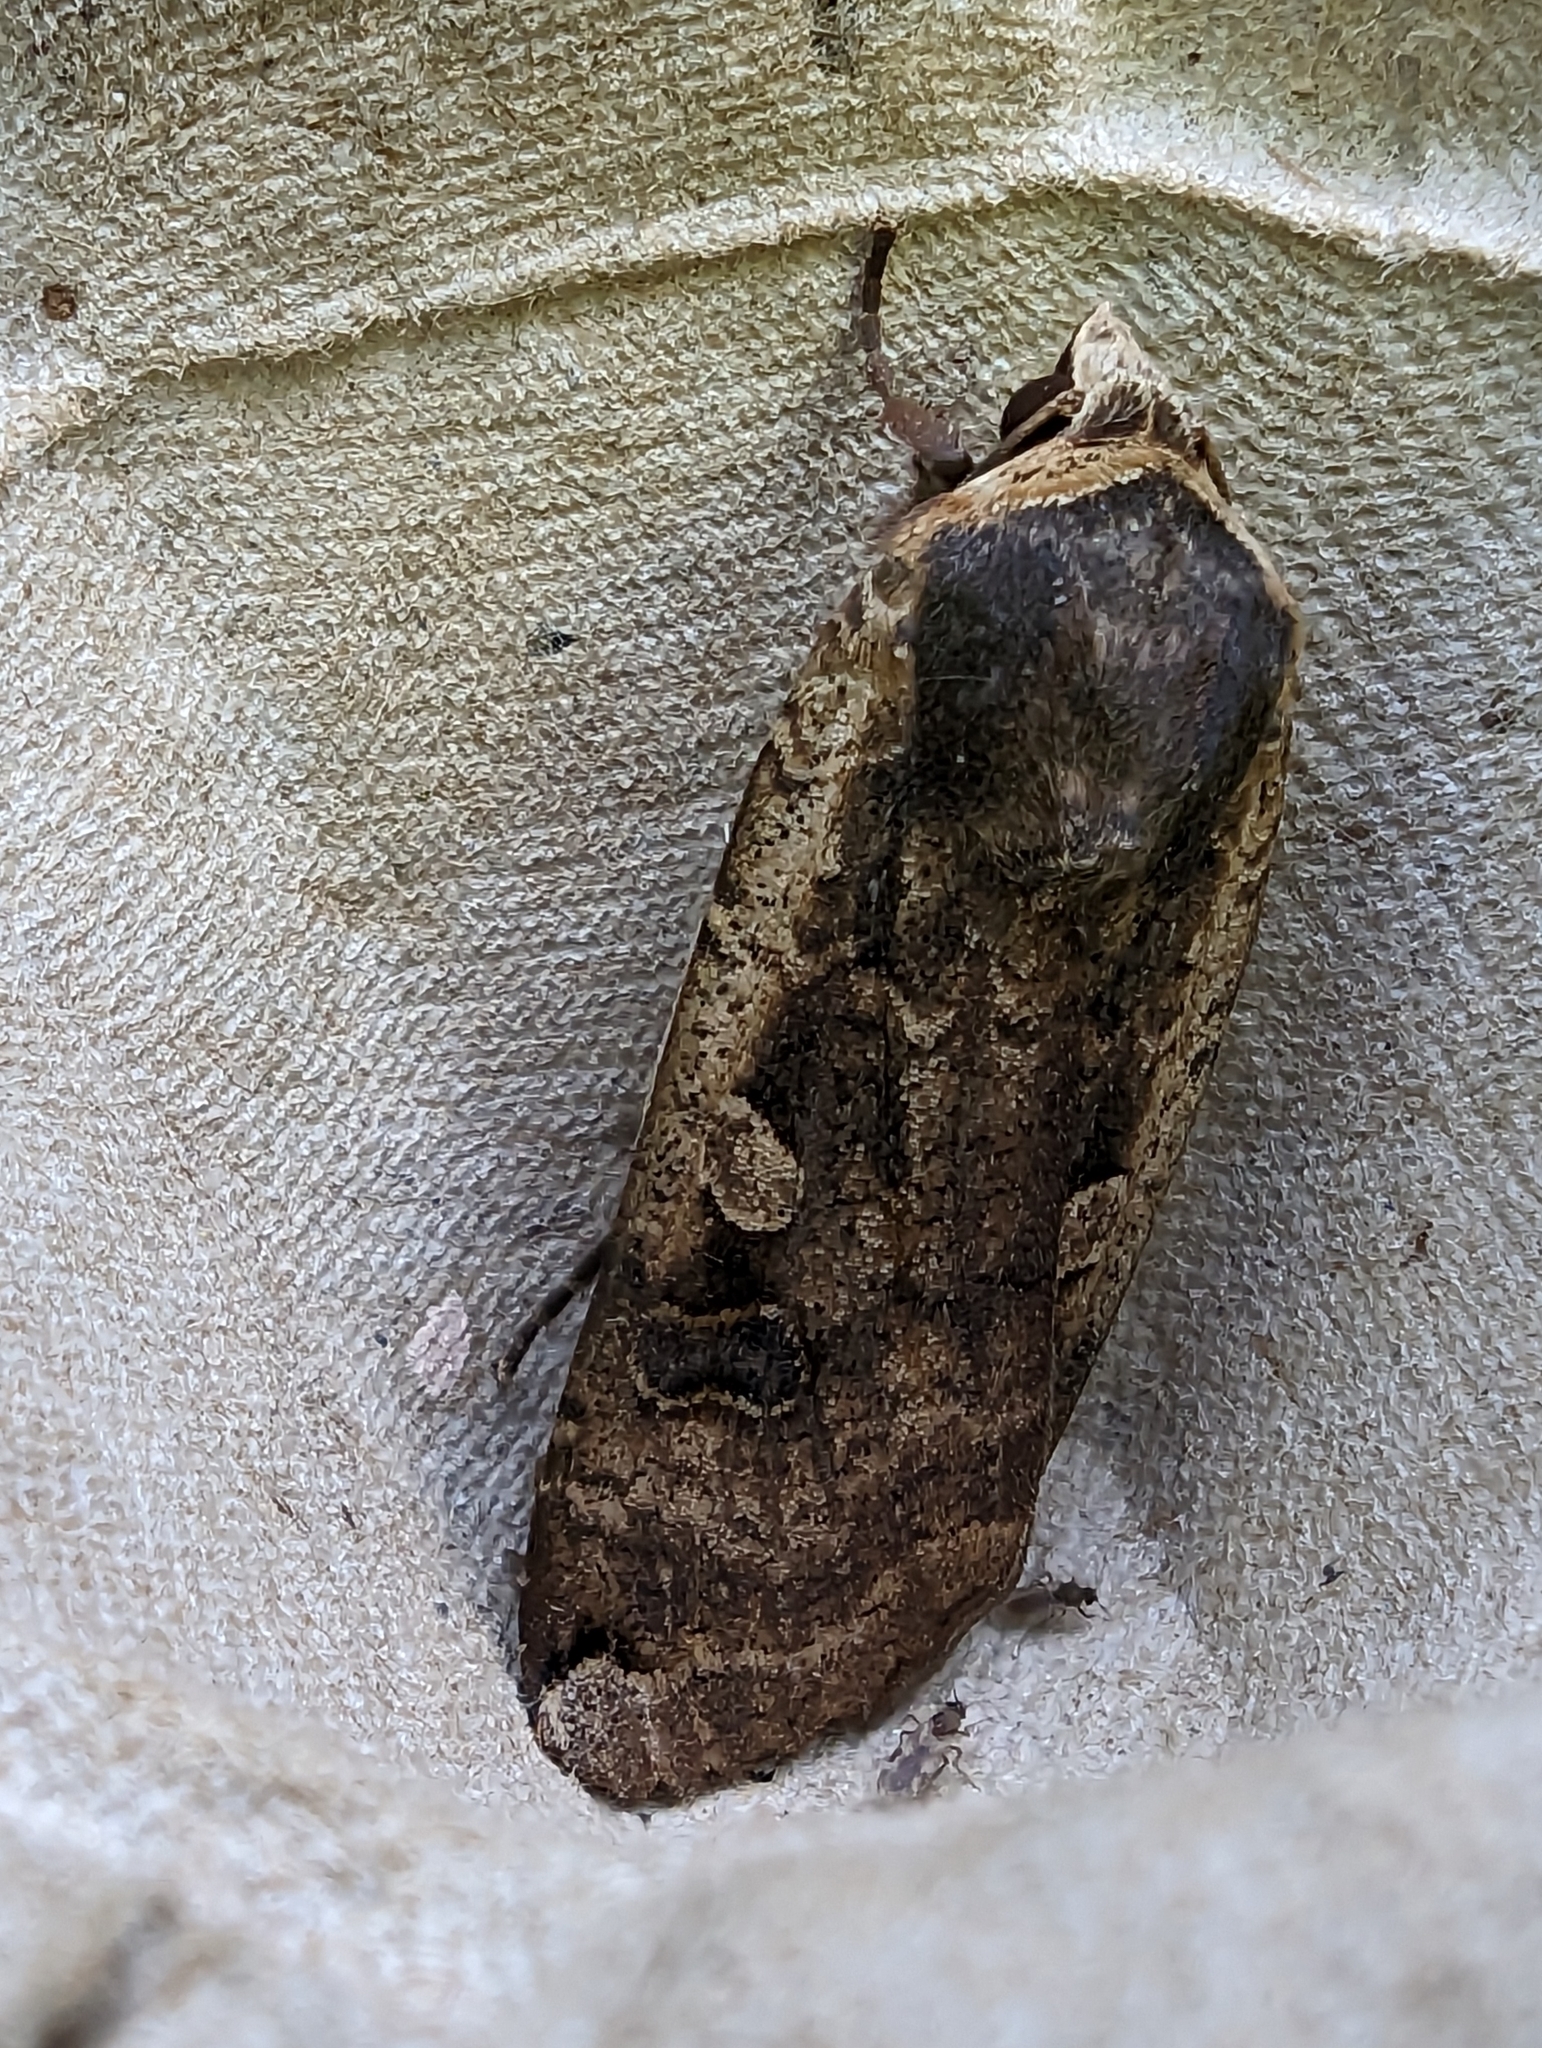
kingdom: Animalia
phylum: Arthropoda
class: Insecta
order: Lepidoptera
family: Noctuidae
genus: Noctua
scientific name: Noctua pronuba
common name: Large yellow underwing
